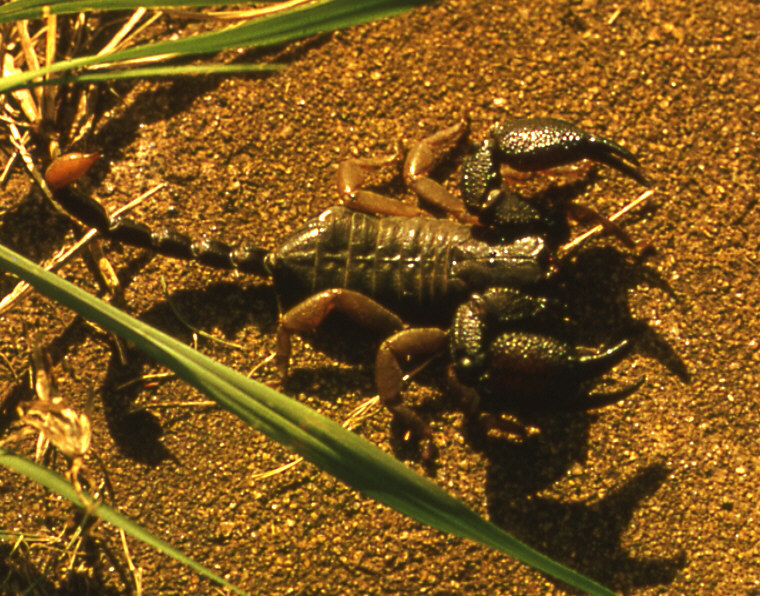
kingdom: Animalia
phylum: Arthropoda
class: Arachnida
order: Scorpiones
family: Hormuridae
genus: Opisthacanthus
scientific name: Opisthacanthus asper
